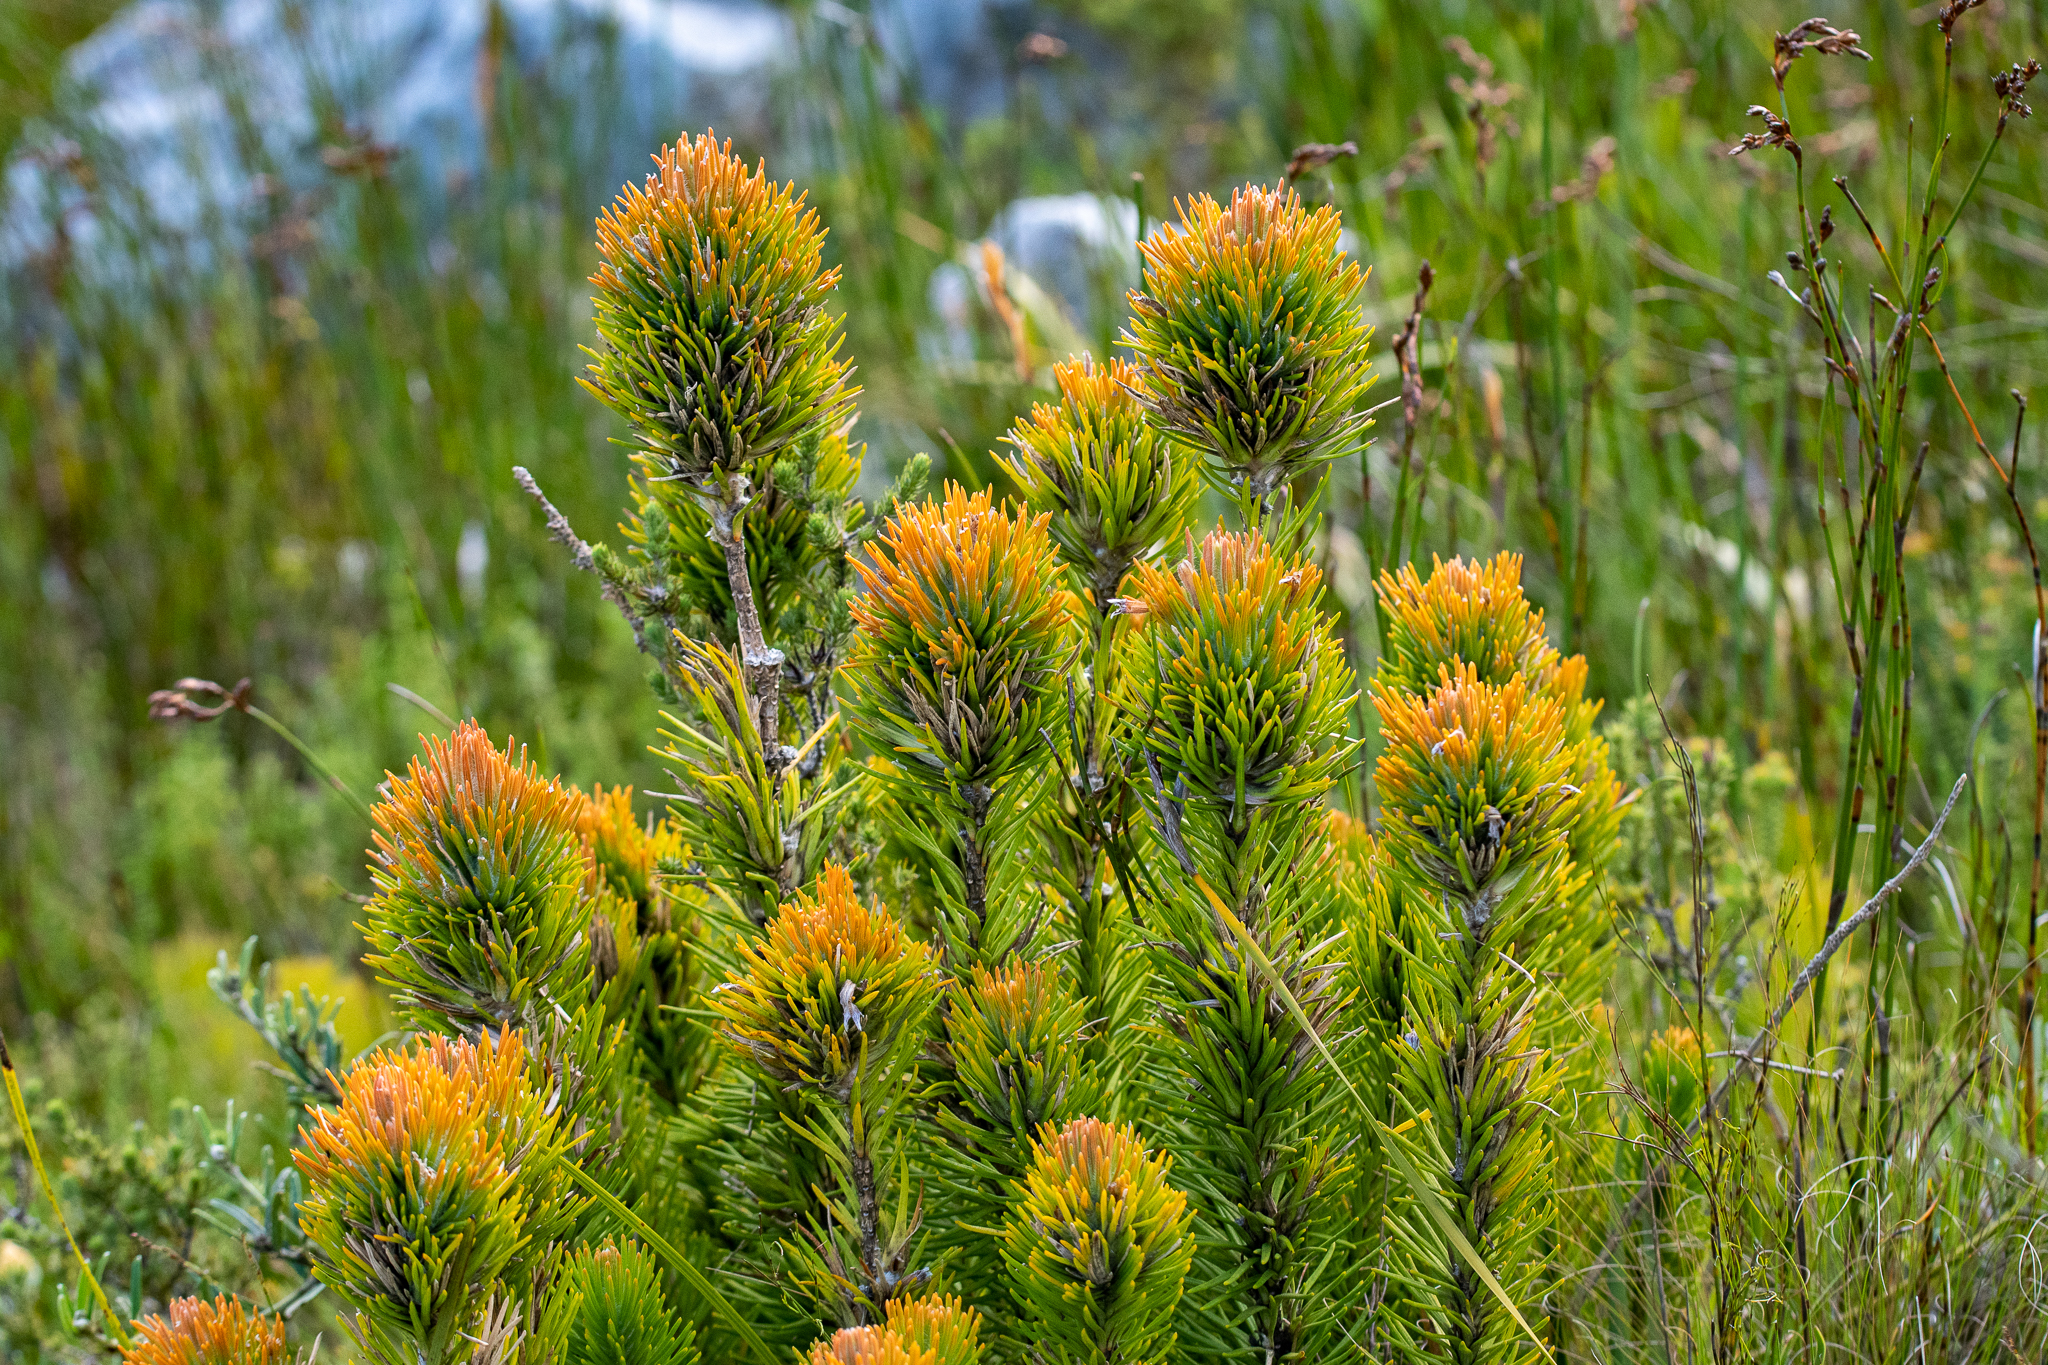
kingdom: Plantae
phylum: Tracheophyta
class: Magnoliopsida
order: Lamiales
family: Stilbaceae
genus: Retzia
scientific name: Retzia capensis
